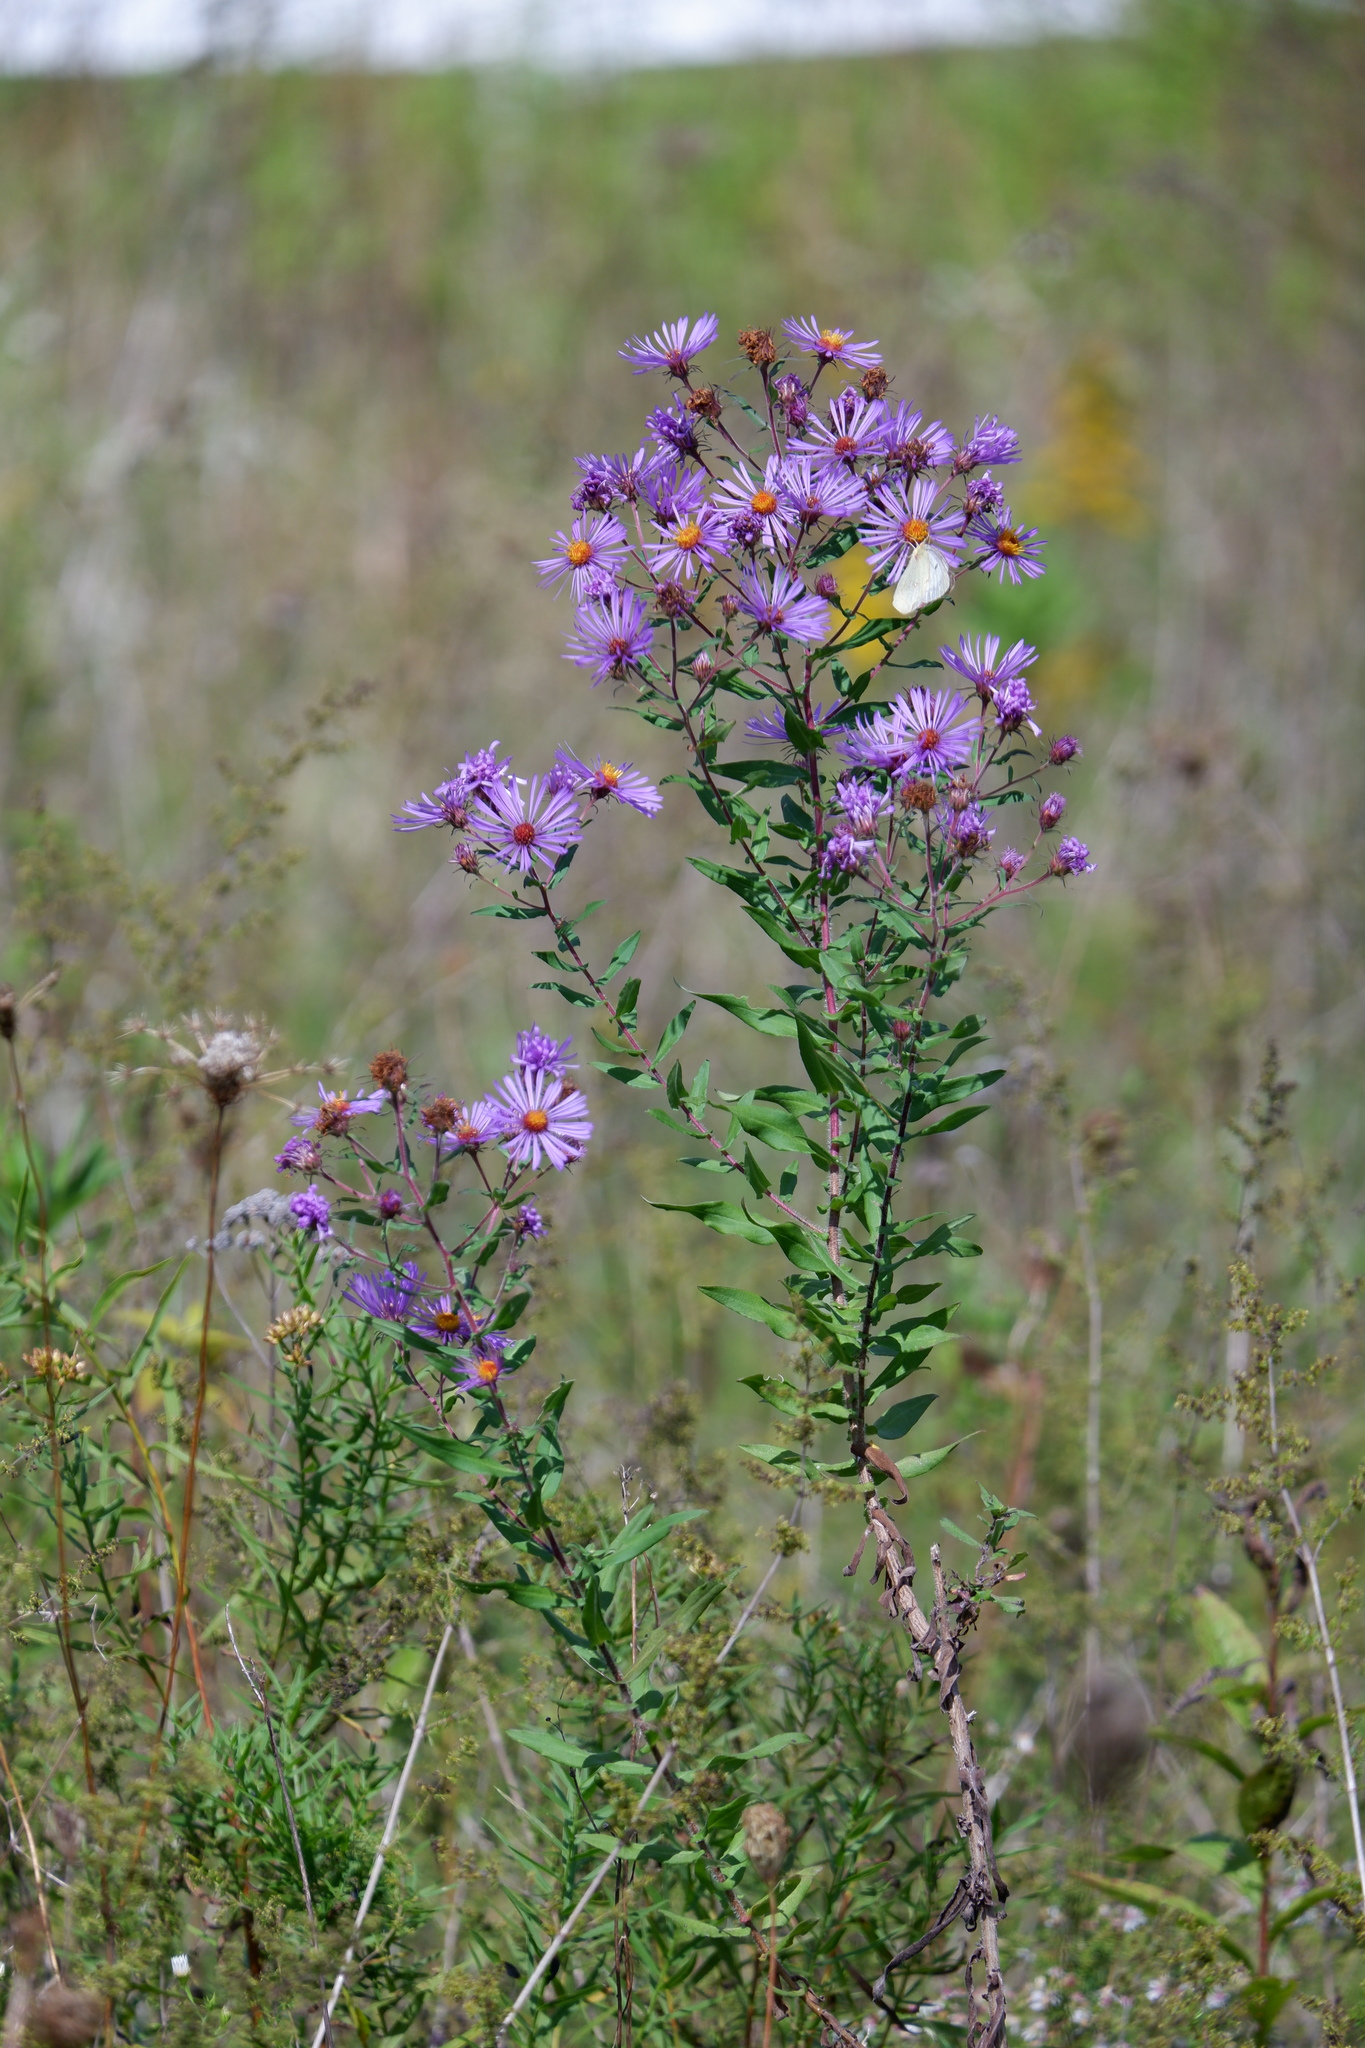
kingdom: Plantae
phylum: Tracheophyta
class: Magnoliopsida
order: Asterales
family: Asteraceae
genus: Symphyotrichum
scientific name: Symphyotrichum novae-angliae
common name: Michaelmas daisy
